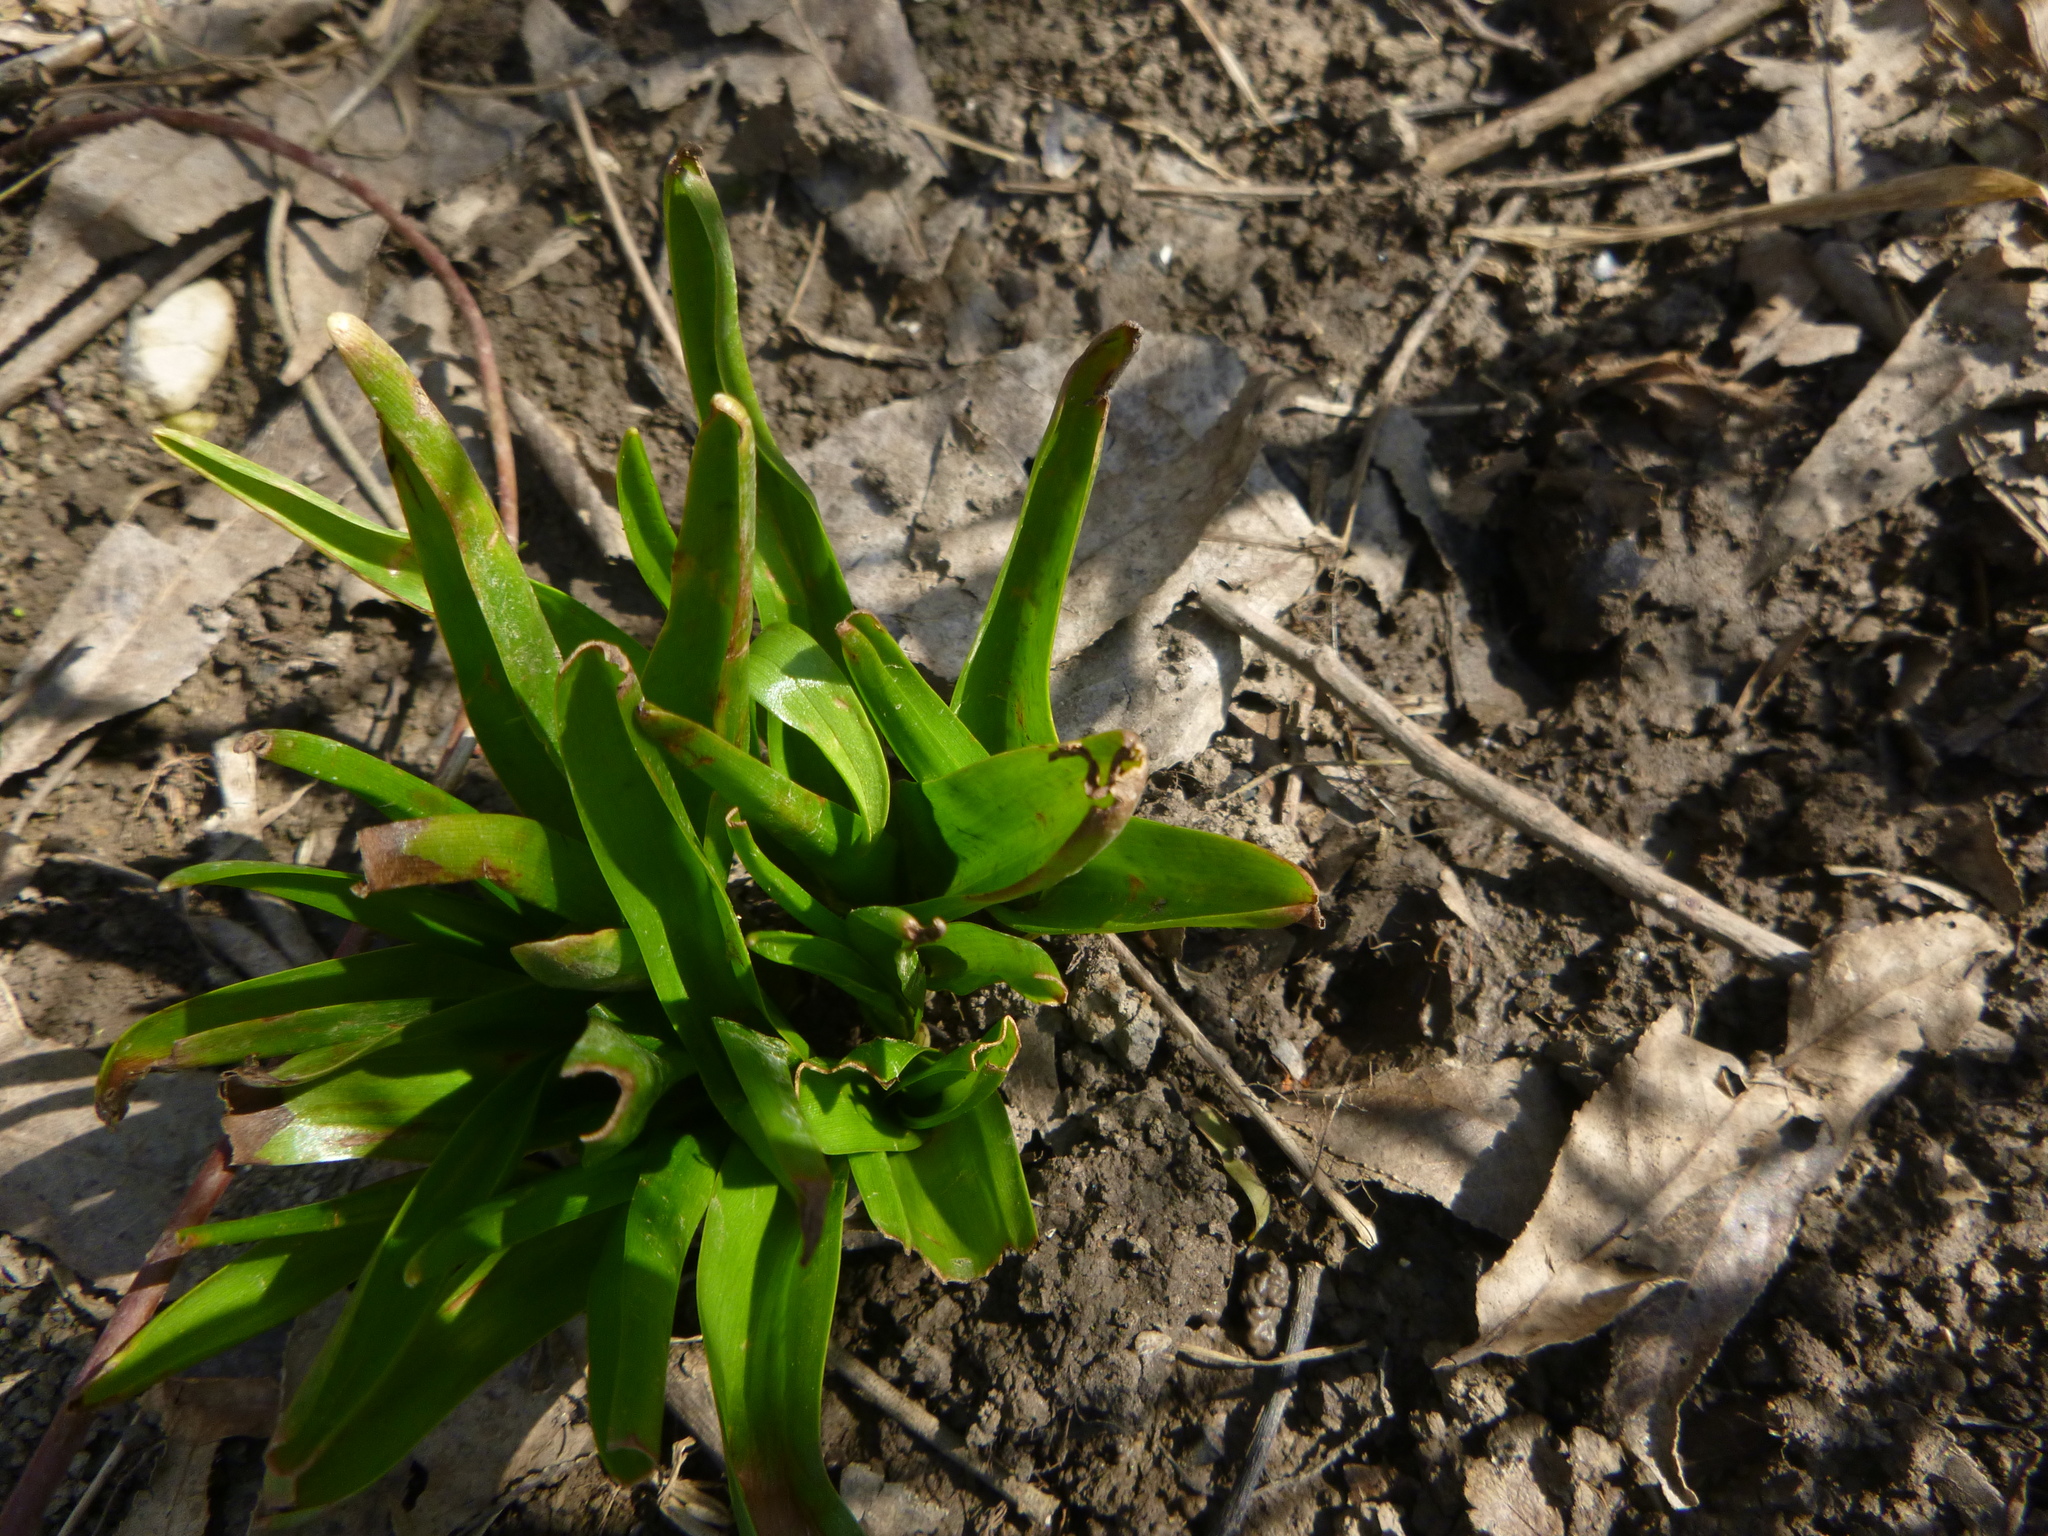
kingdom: Plantae
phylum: Tracheophyta
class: Liliopsida
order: Liliales
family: Colchicaceae
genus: Colchicum
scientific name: Colchicum autumnale
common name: Autumn crocus
